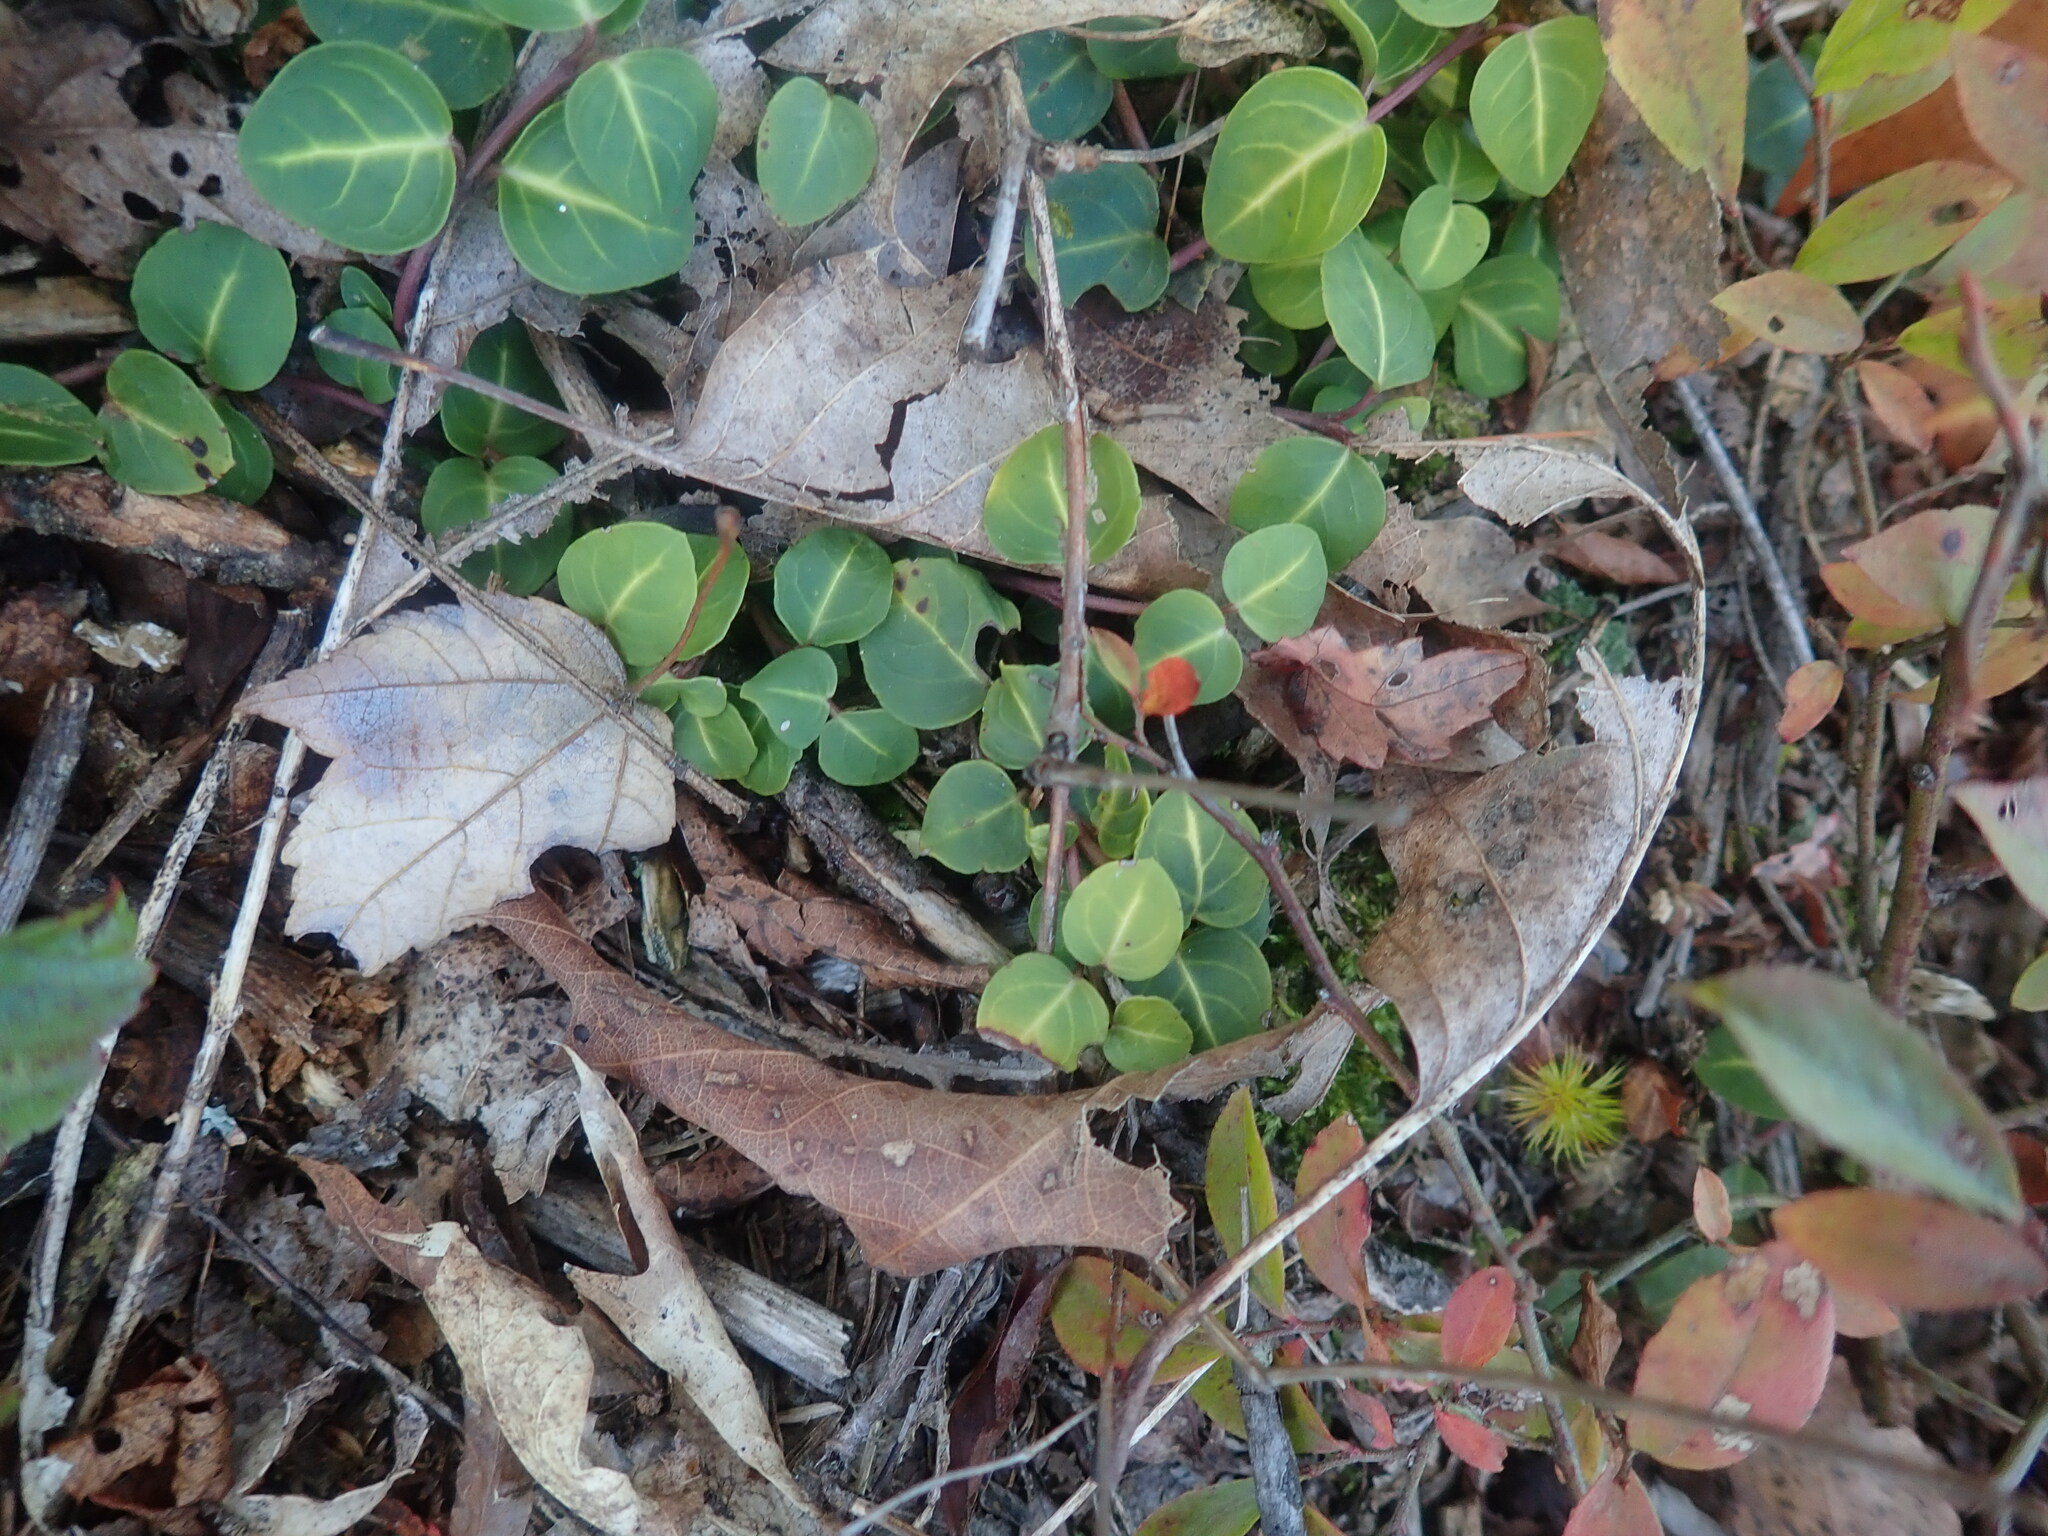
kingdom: Plantae
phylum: Tracheophyta
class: Magnoliopsida
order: Gentianales
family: Rubiaceae
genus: Mitchella
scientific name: Mitchella repens
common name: Partridge-berry
